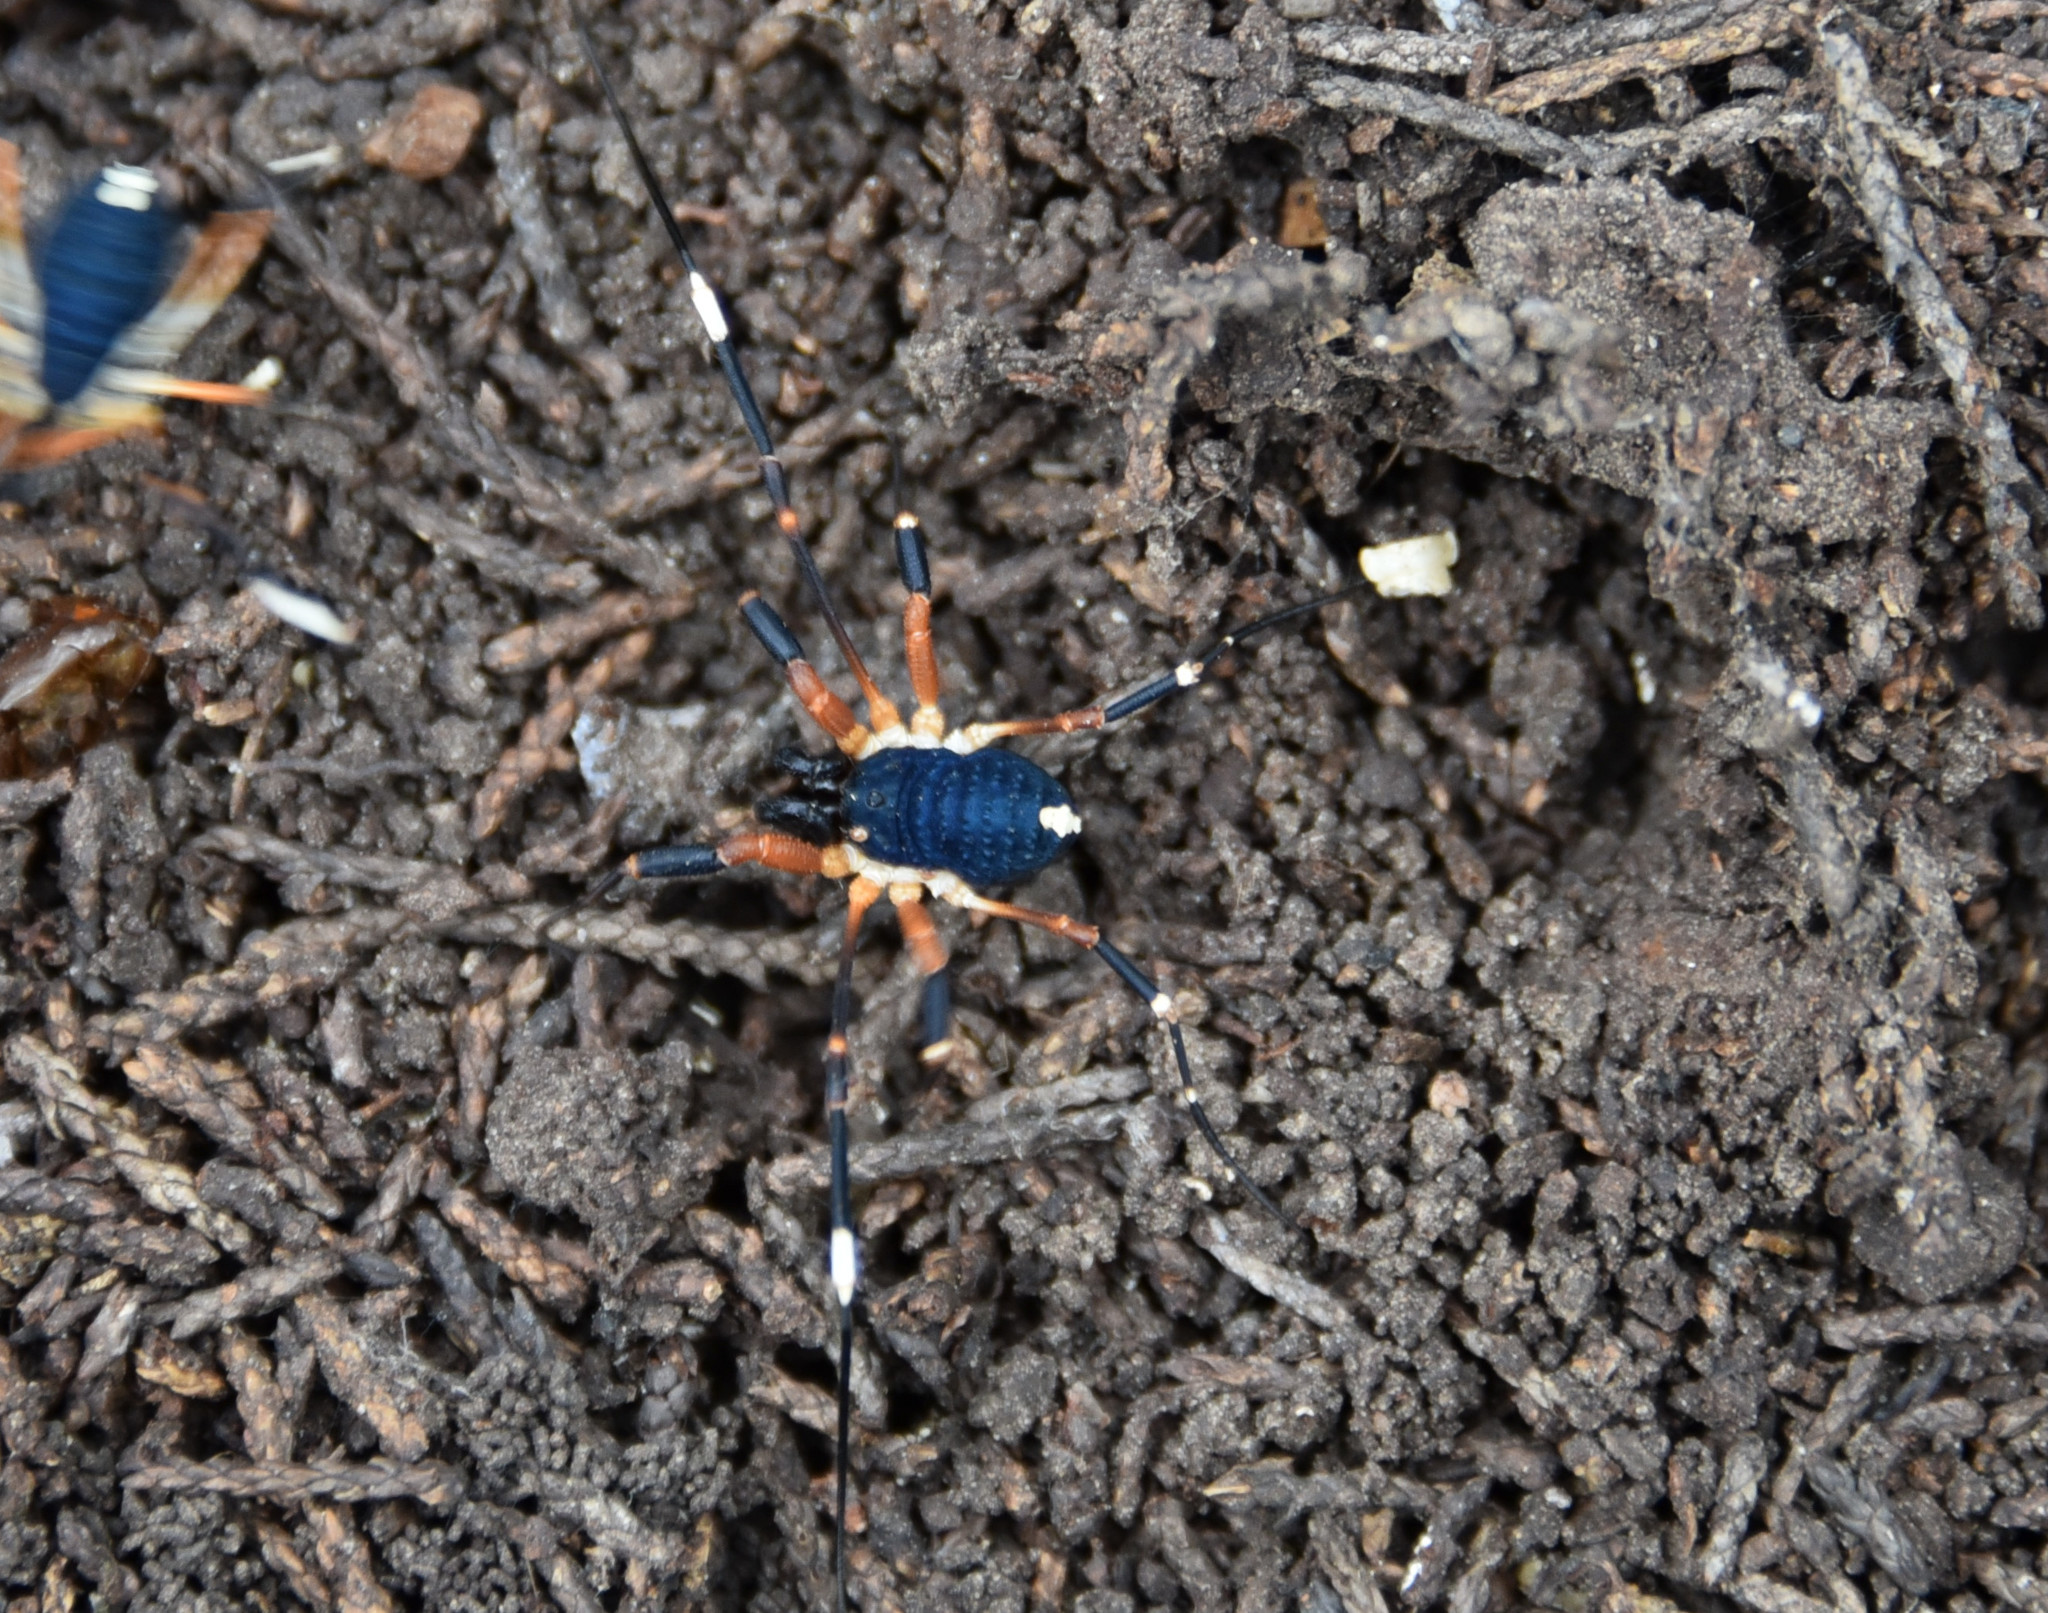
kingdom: Animalia
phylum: Arthropoda
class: Arachnida
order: Opiliones
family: Globipedidae
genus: Dalquestia
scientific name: Dalquestia formosa
